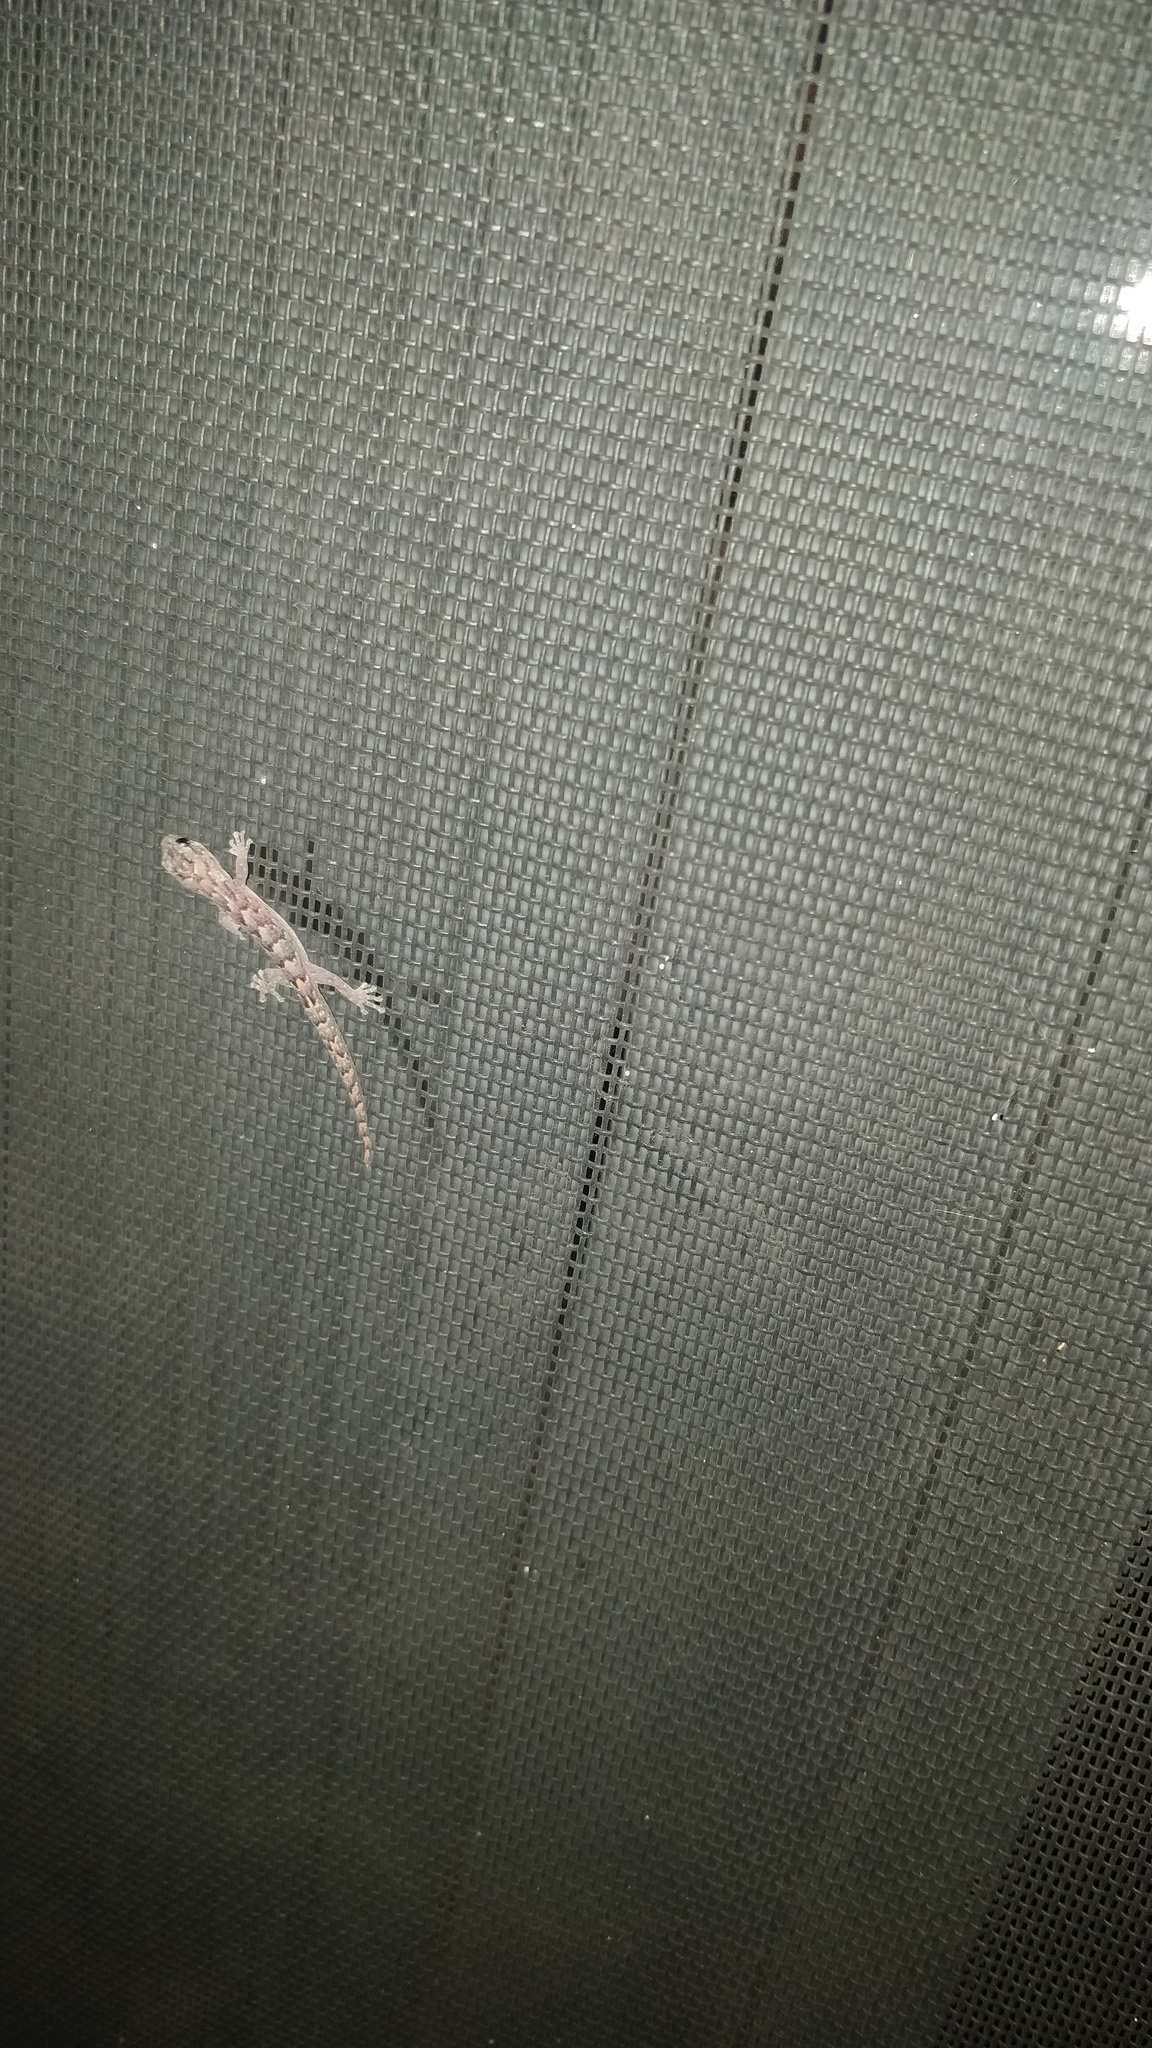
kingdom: Animalia
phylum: Chordata
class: Squamata
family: Gekkonidae
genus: Christinus
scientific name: Christinus marmoratus
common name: Marbled gecko
